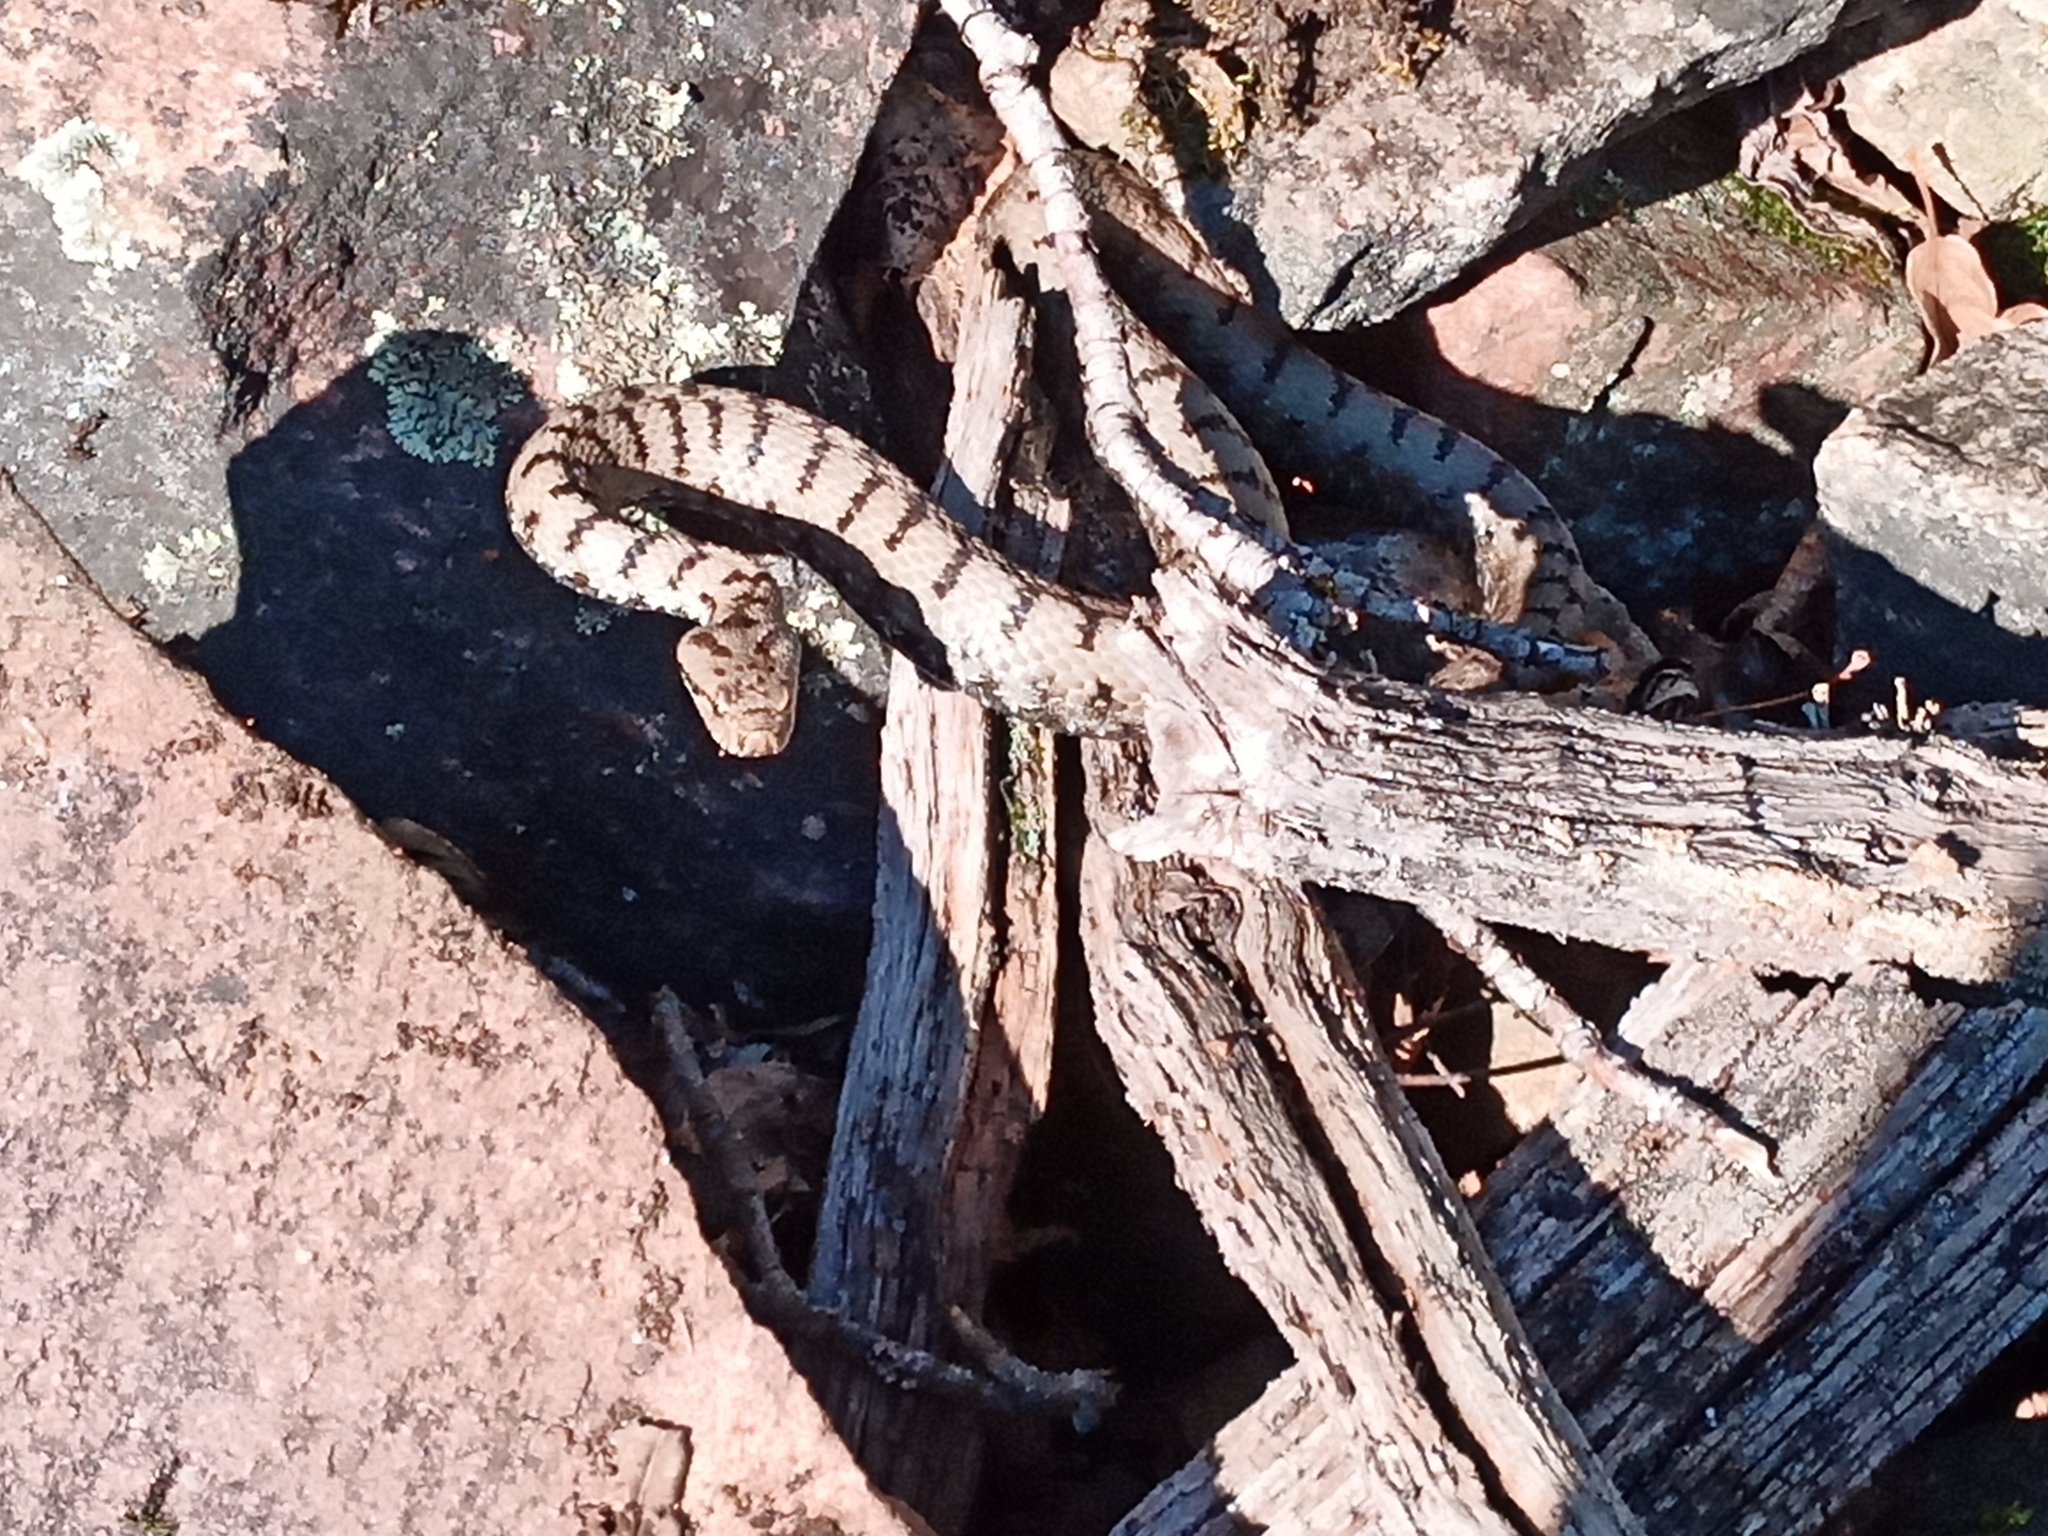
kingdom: Animalia
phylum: Chordata
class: Squamata
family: Viperidae
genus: Vipera
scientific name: Vipera aspis
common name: Asp viper
